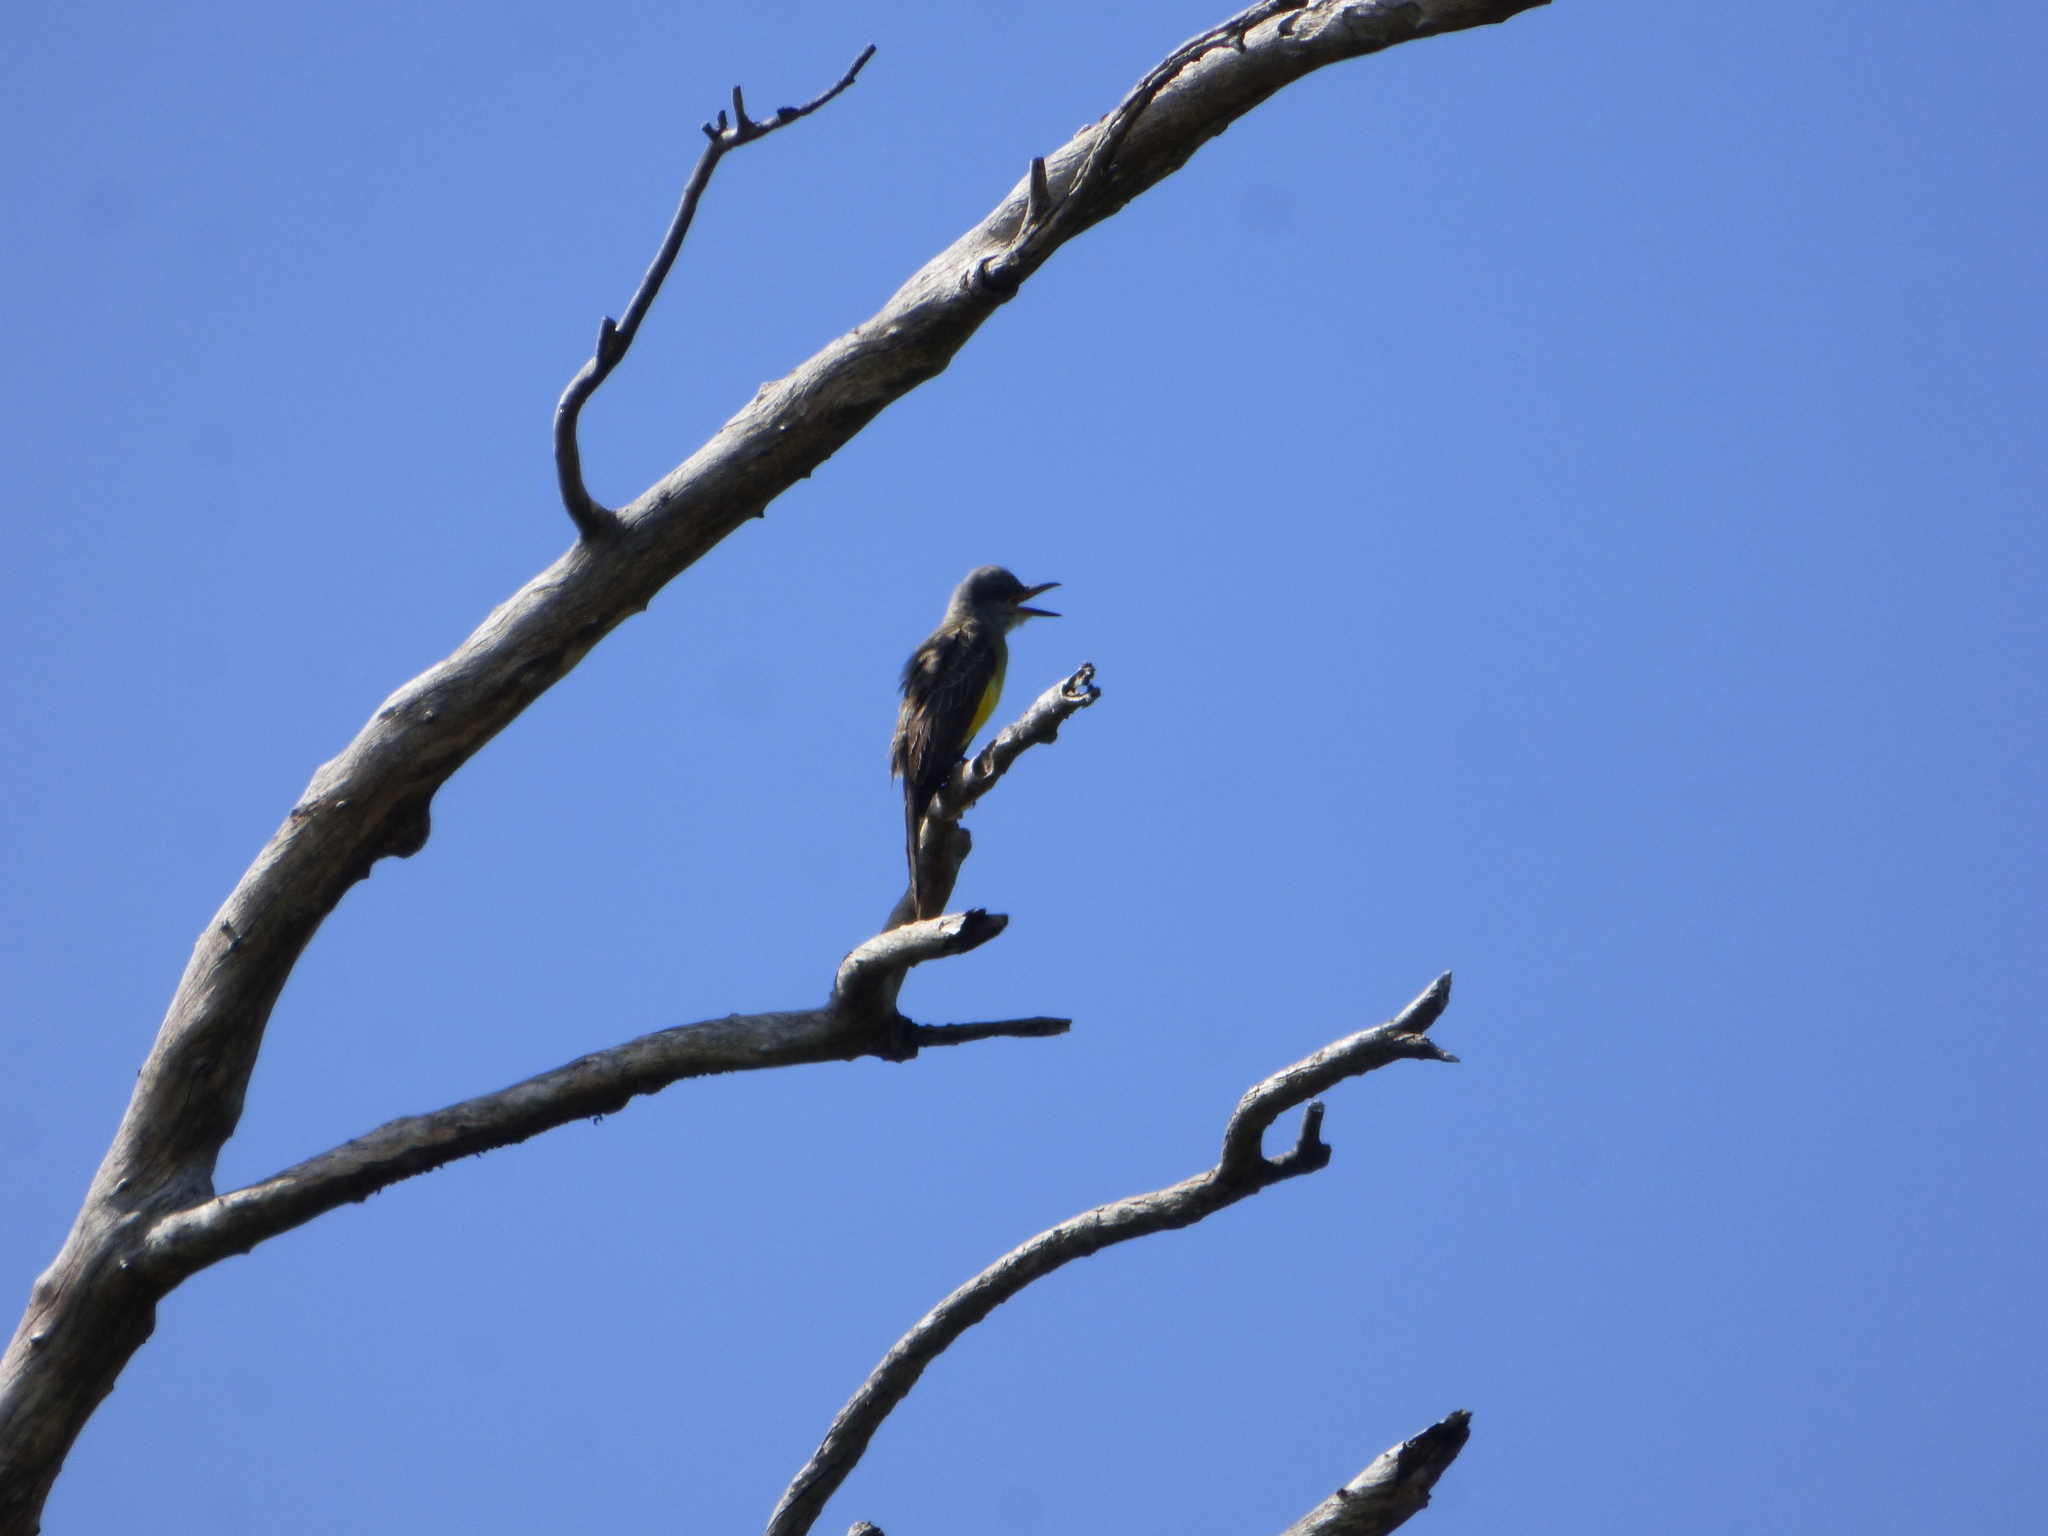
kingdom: Animalia
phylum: Chordata
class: Aves
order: Passeriformes
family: Tyrannidae
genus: Tyrannus
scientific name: Tyrannus melancholicus
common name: Tropical kingbird
